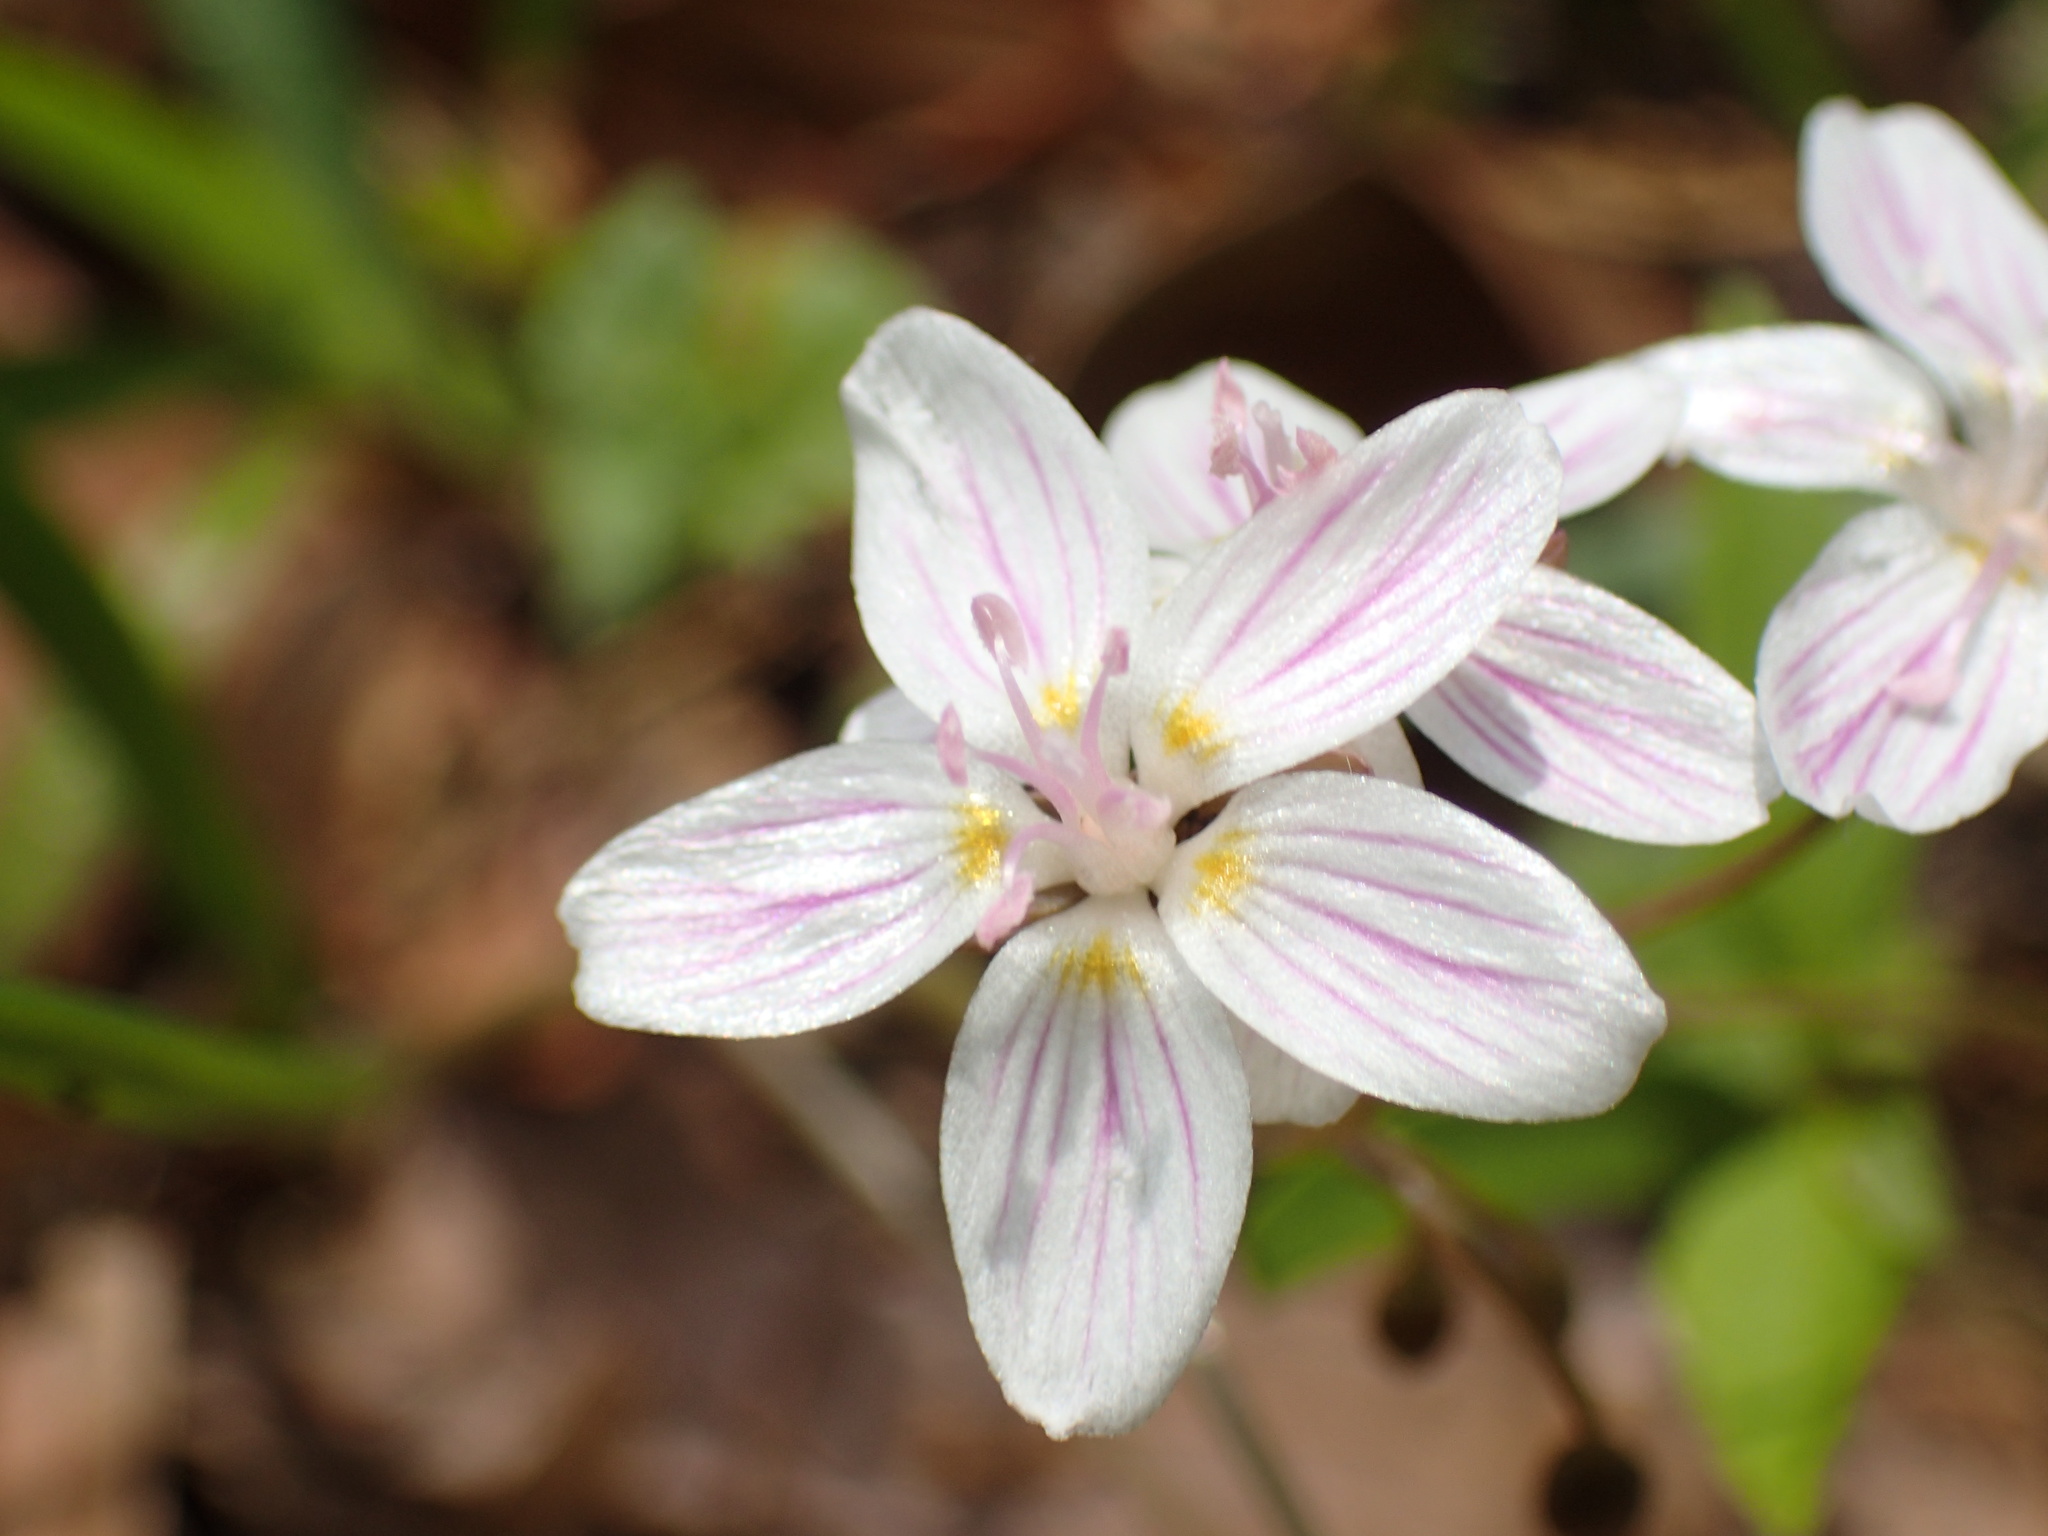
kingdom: Plantae
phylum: Tracheophyta
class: Magnoliopsida
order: Caryophyllales
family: Montiaceae
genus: Claytonia
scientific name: Claytonia virginica
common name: Virginia springbeauty
